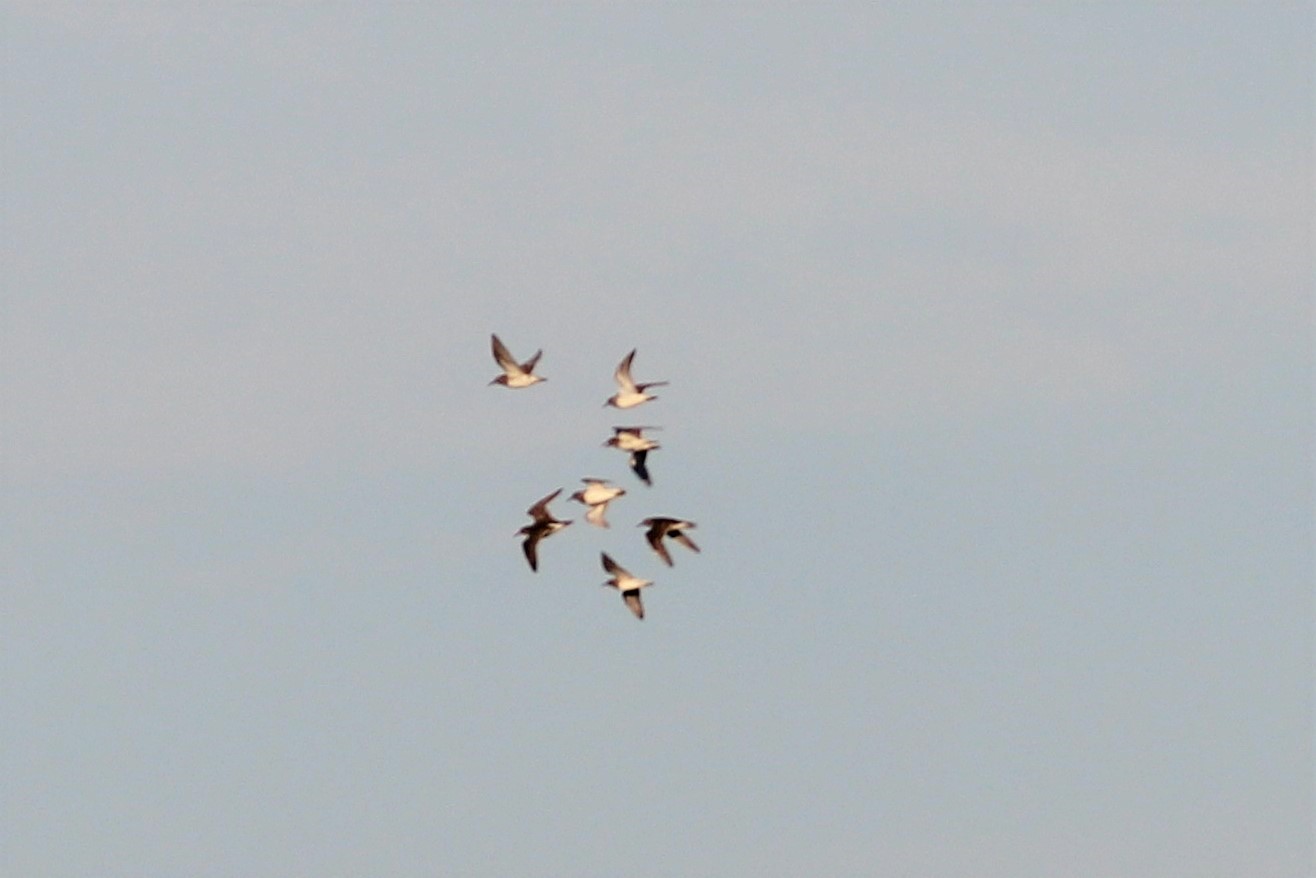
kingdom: Animalia
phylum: Chordata
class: Aves
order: Charadriiformes
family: Scolopacidae
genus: Calidris
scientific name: Calidris melanotos
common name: Pectoral sandpiper
